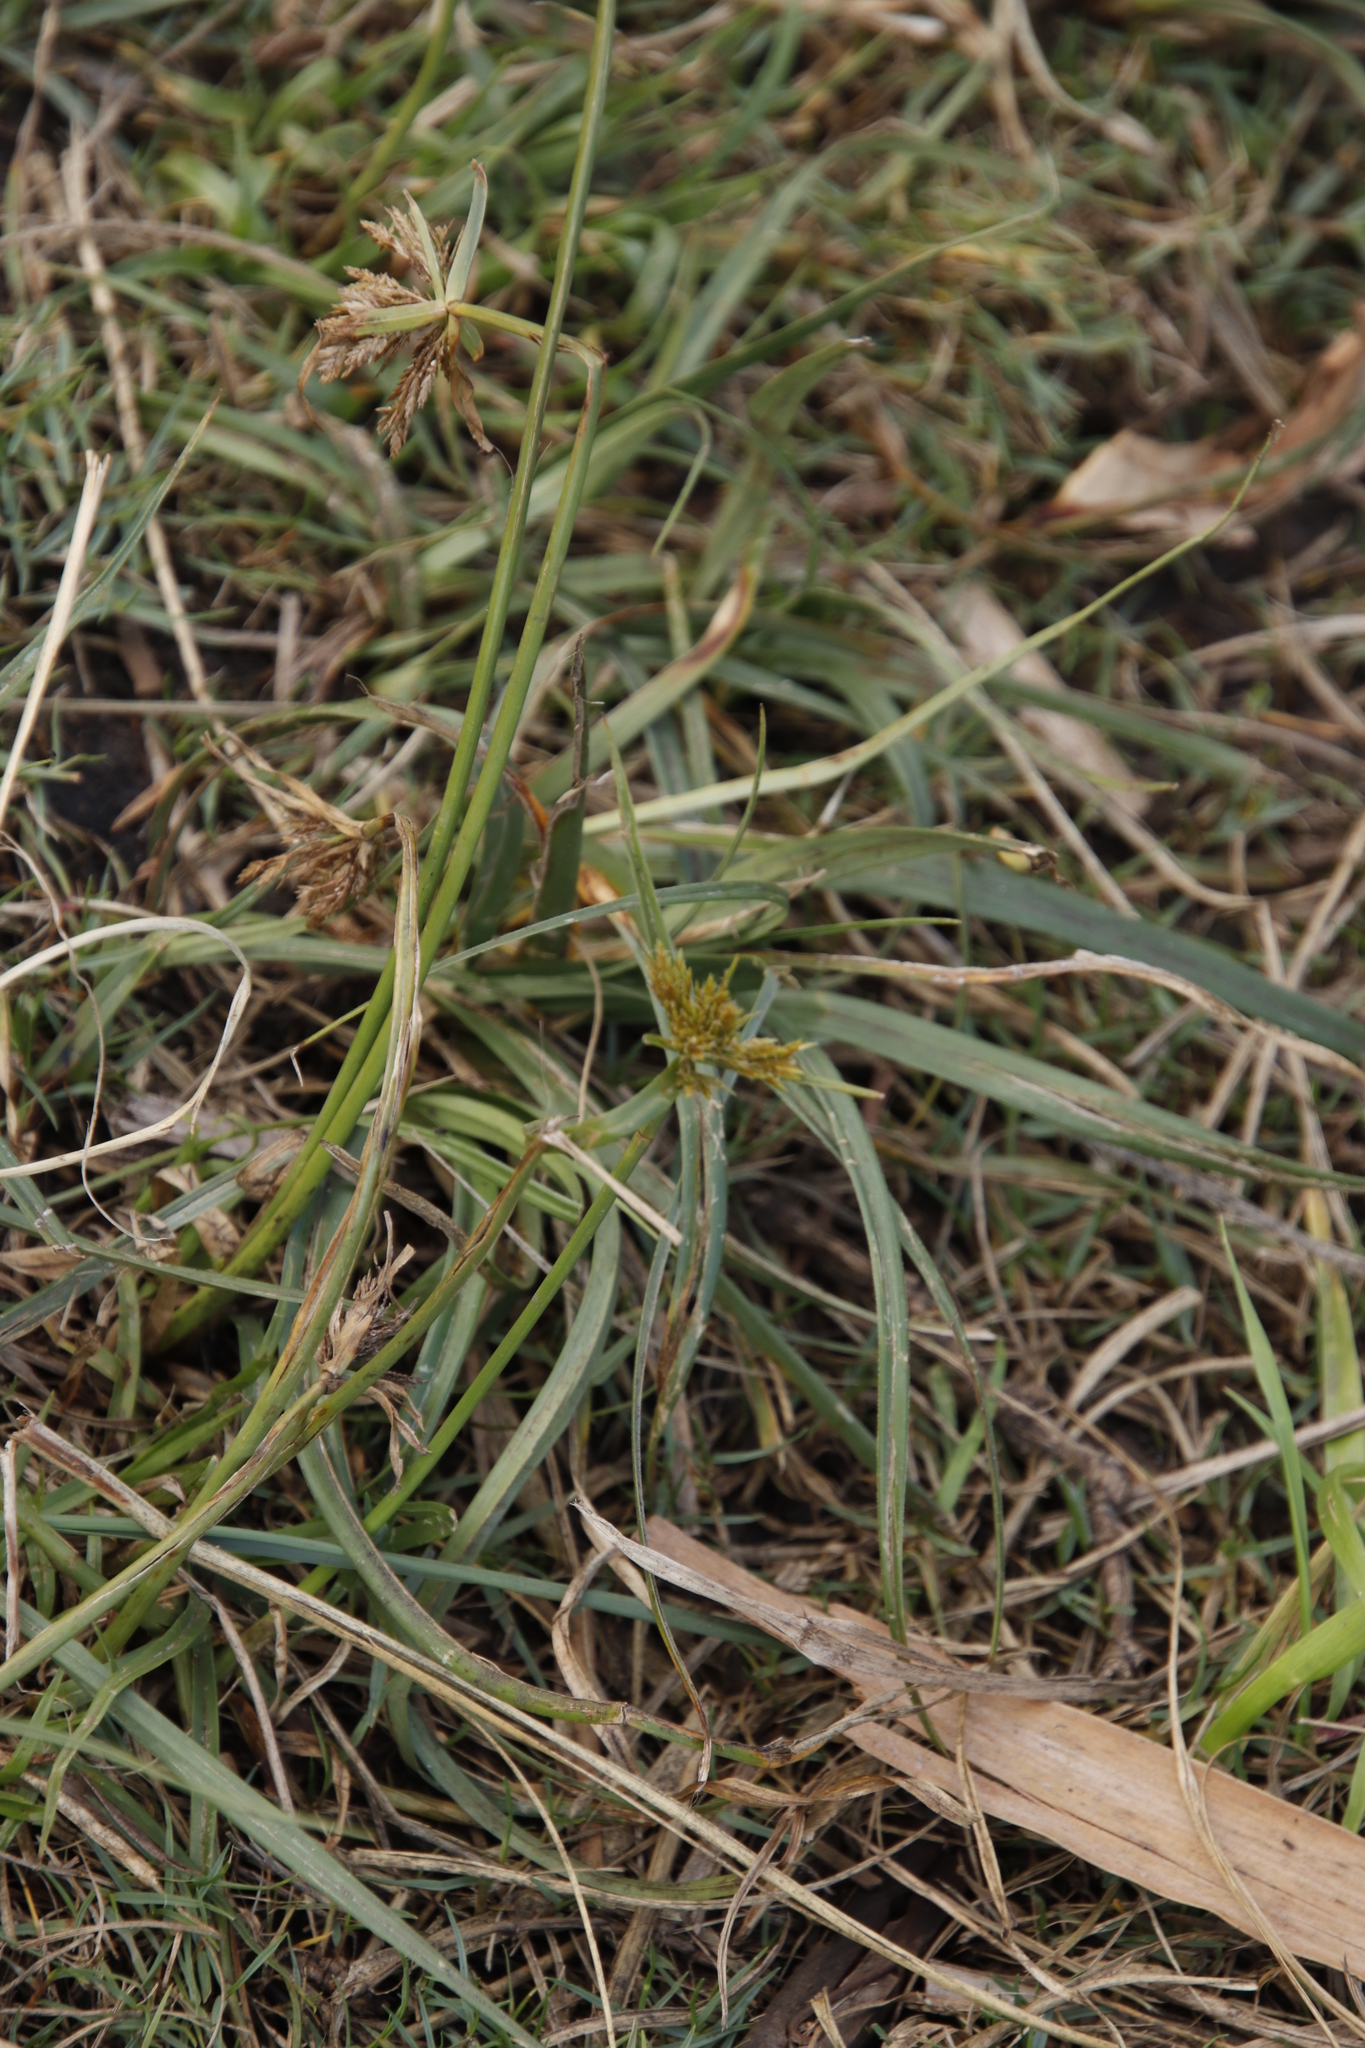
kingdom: Plantae
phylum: Tracheophyta
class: Liliopsida
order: Poales
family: Cyperaceae
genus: Cyperus
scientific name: Cyperus polystachyos
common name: Bunchy flat sedge
